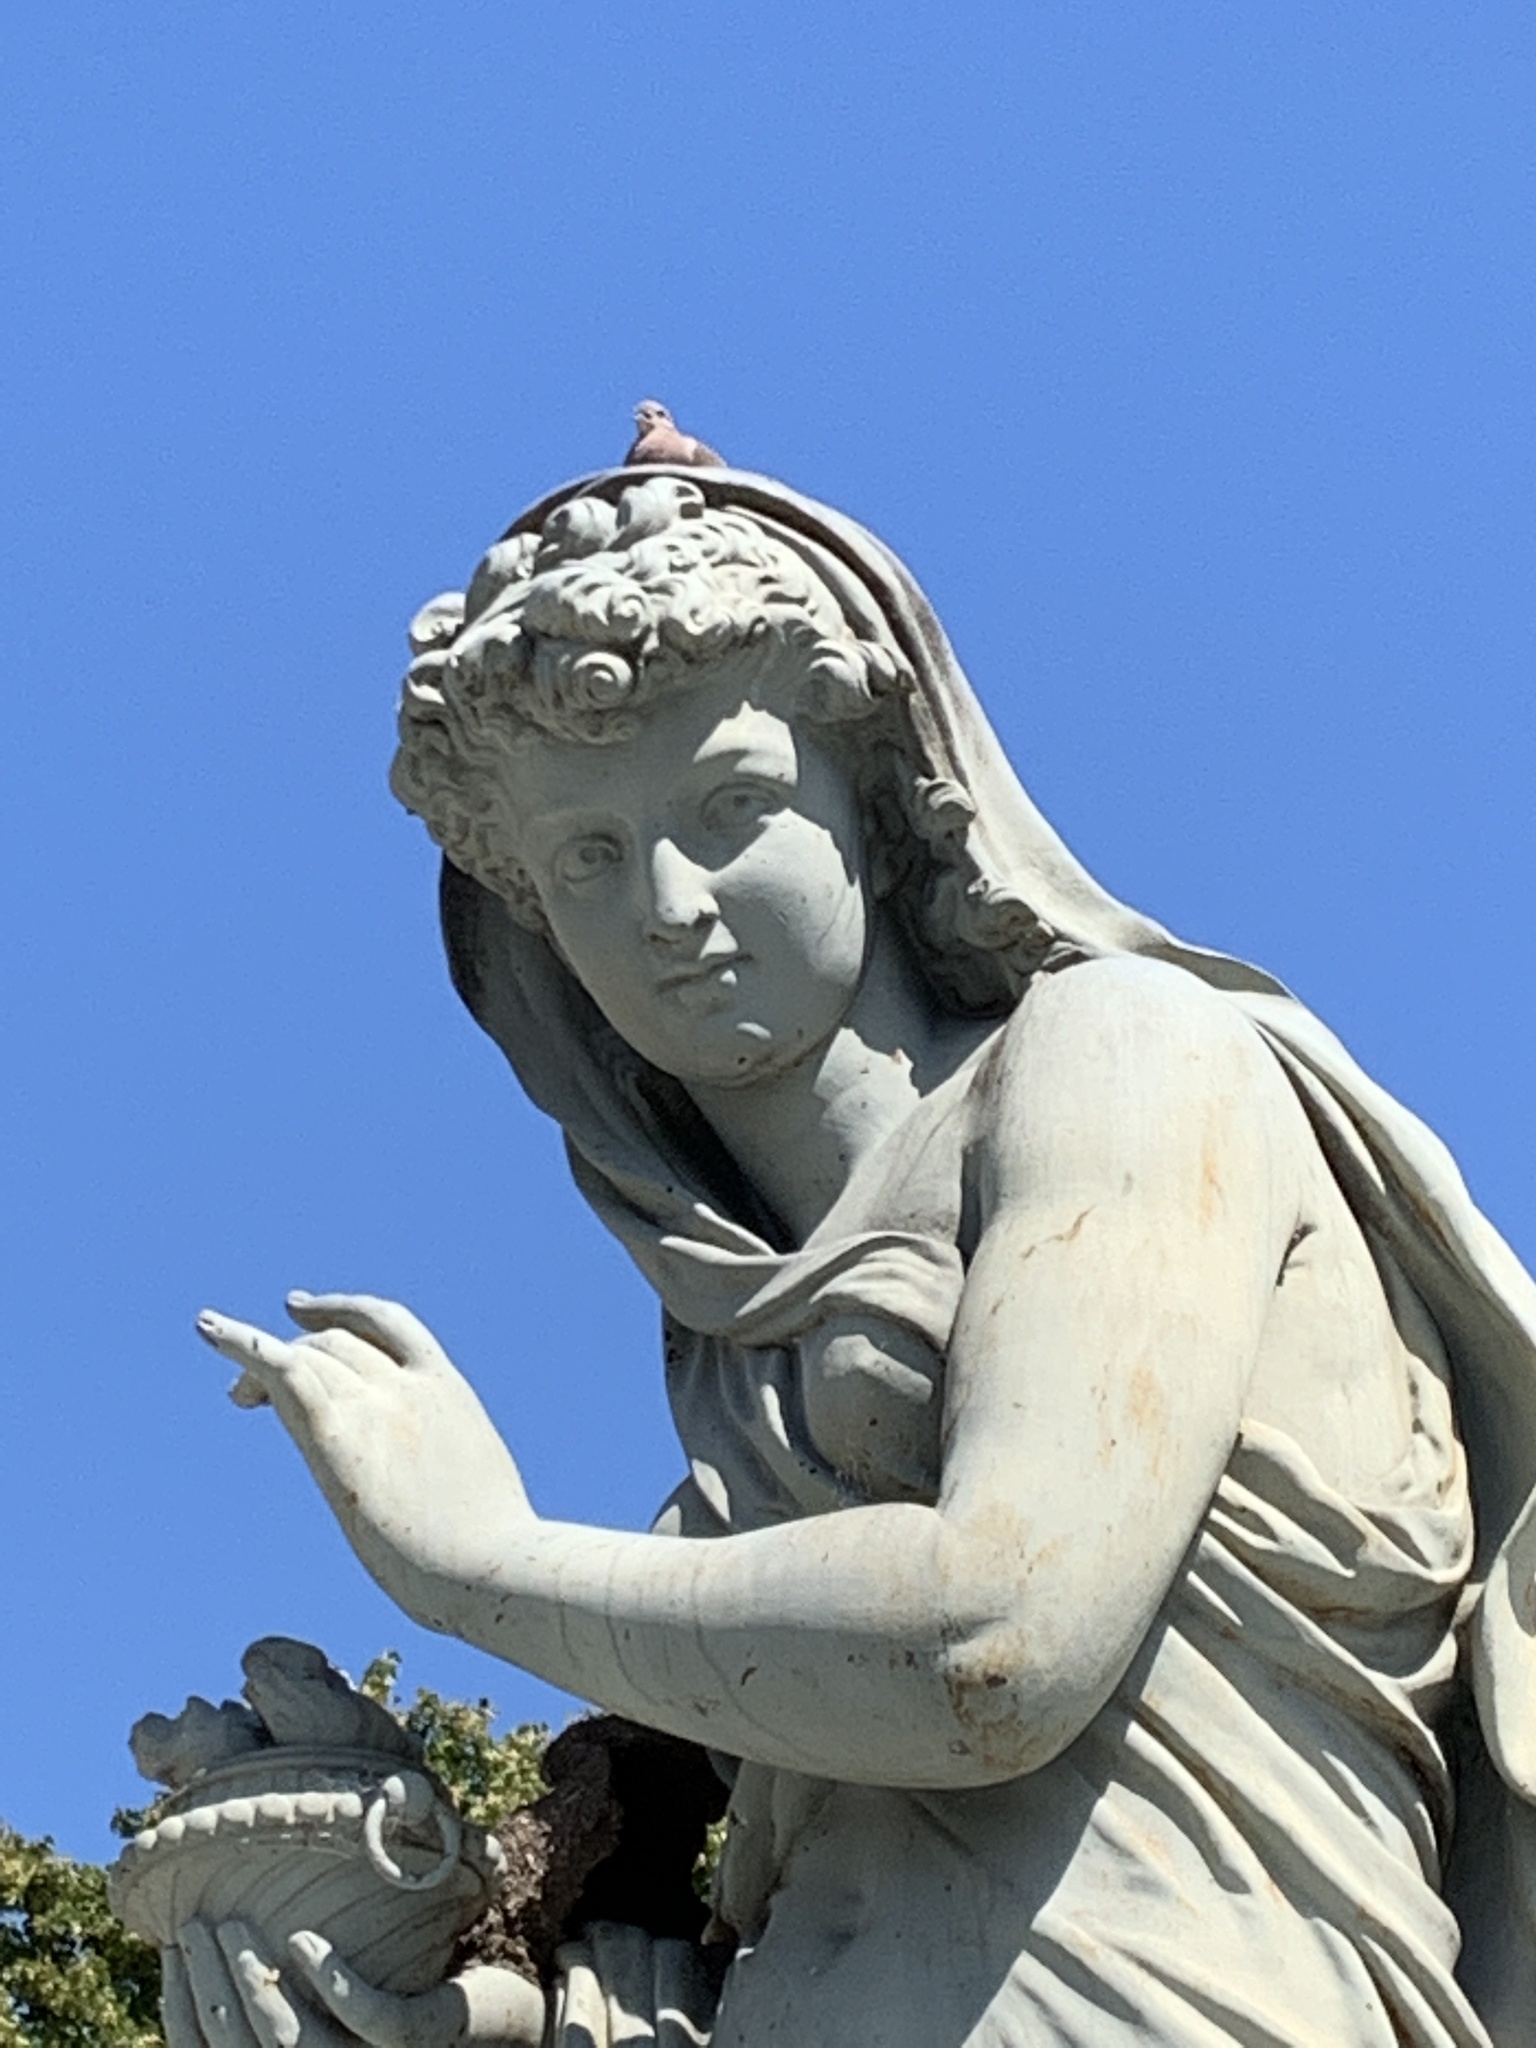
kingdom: Animalia
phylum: Chordata
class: Aves
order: Columbiformes
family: Columbidae
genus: Zenaida
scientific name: Zenaida auriculata
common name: Eared dove
